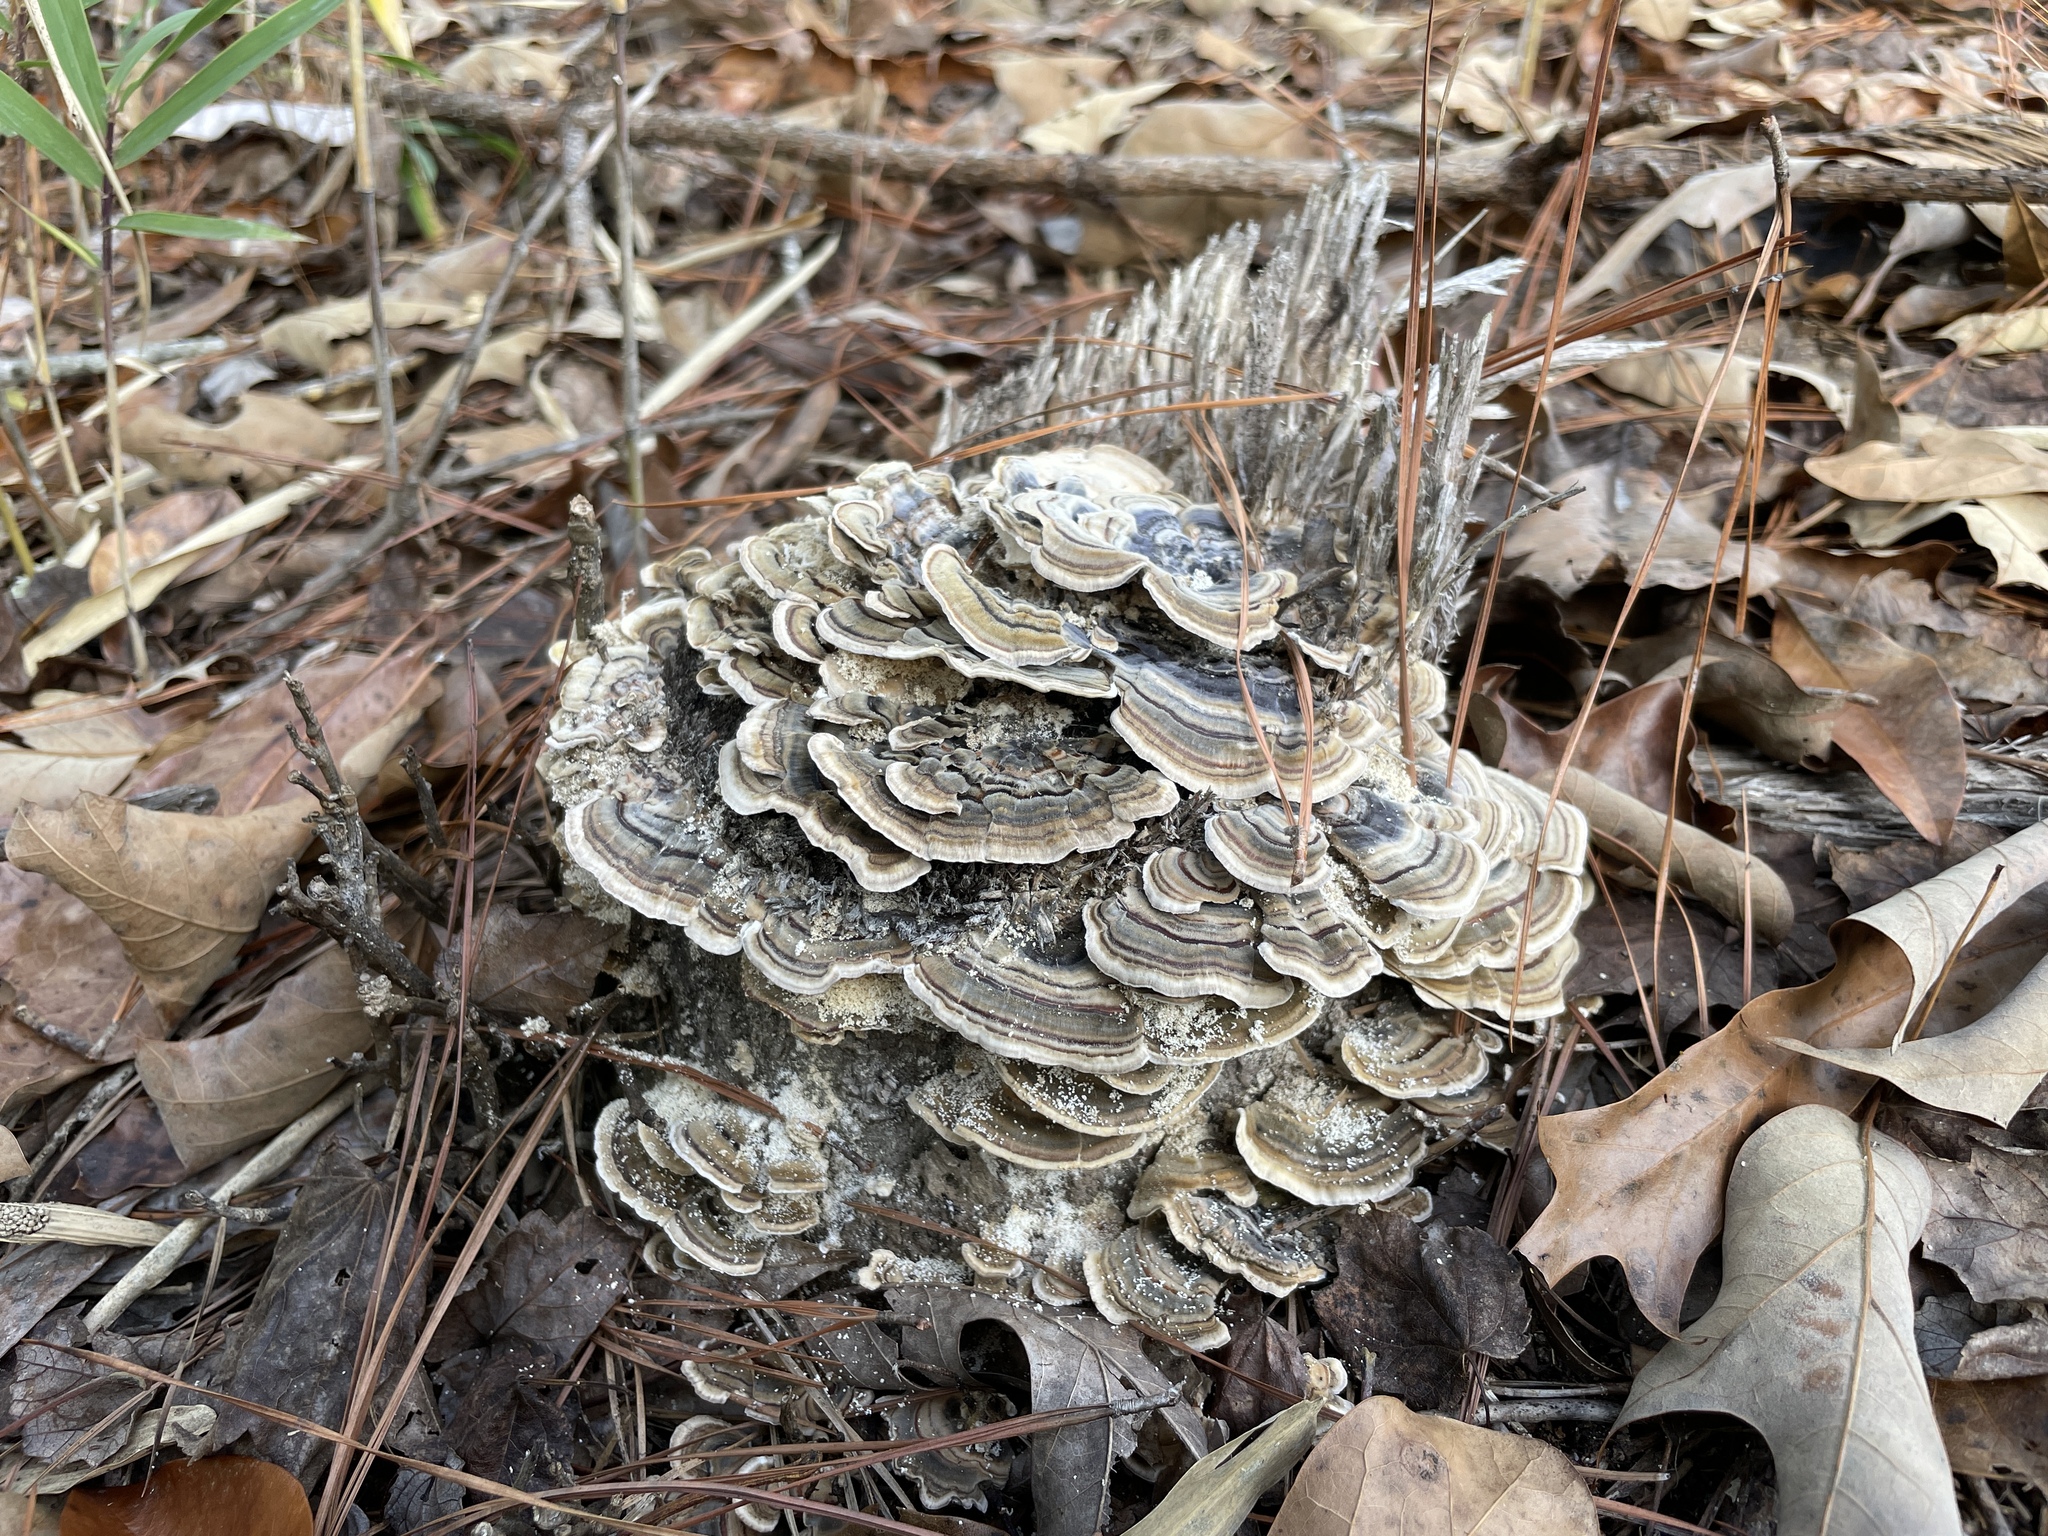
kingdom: Fungi
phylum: Basidiomycota
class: Agaricomycetes
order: Polyporales
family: Polyporaceae
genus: Trametes
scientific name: Trametes versicolor
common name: Turkeytail
